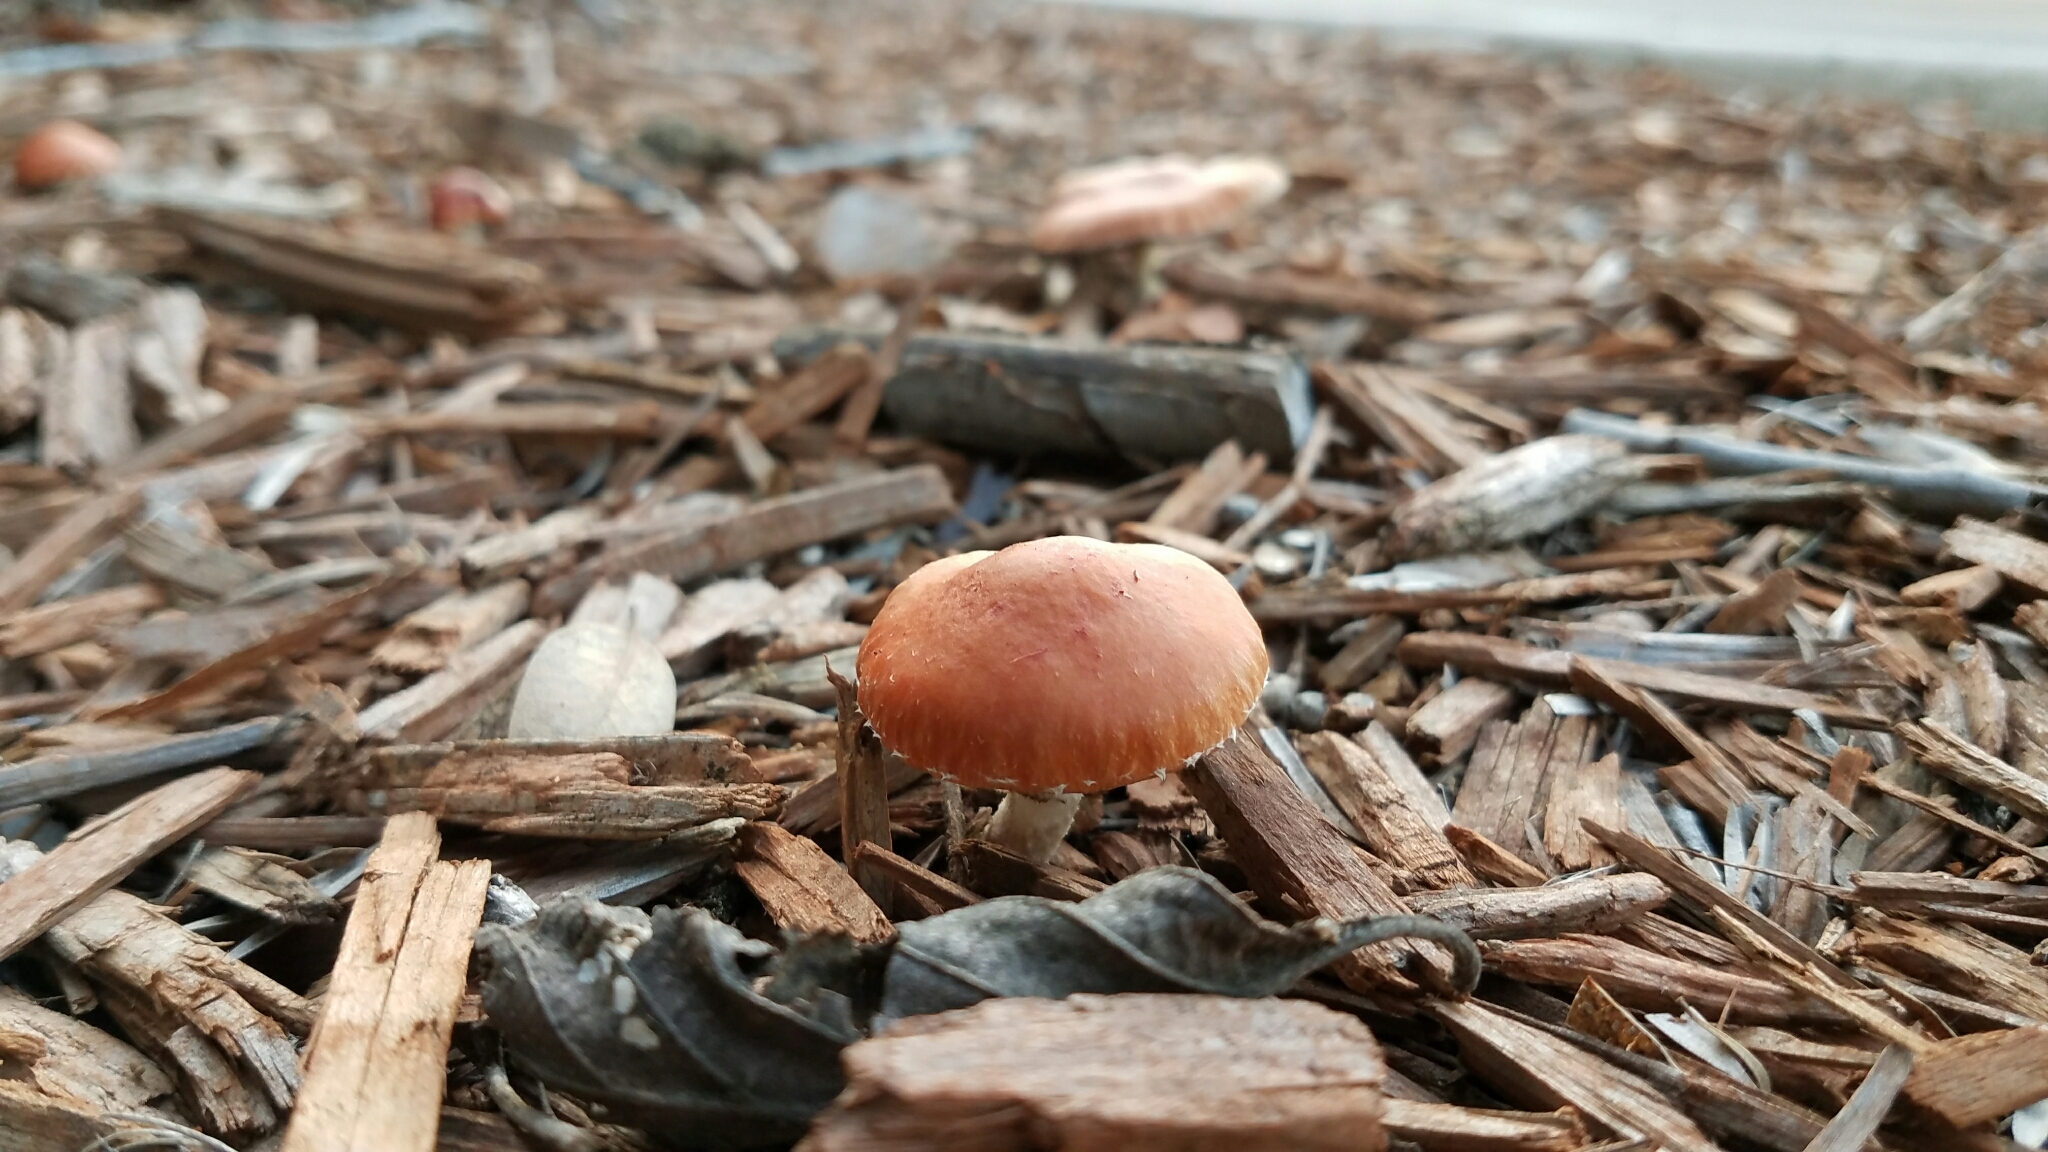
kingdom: Fungi
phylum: Basidiomycota
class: Agaricomycetes
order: Agaricales
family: Strophariaceae
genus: Leratiomyces
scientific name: Leratiomyces ceres
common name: Redlead roundhead
